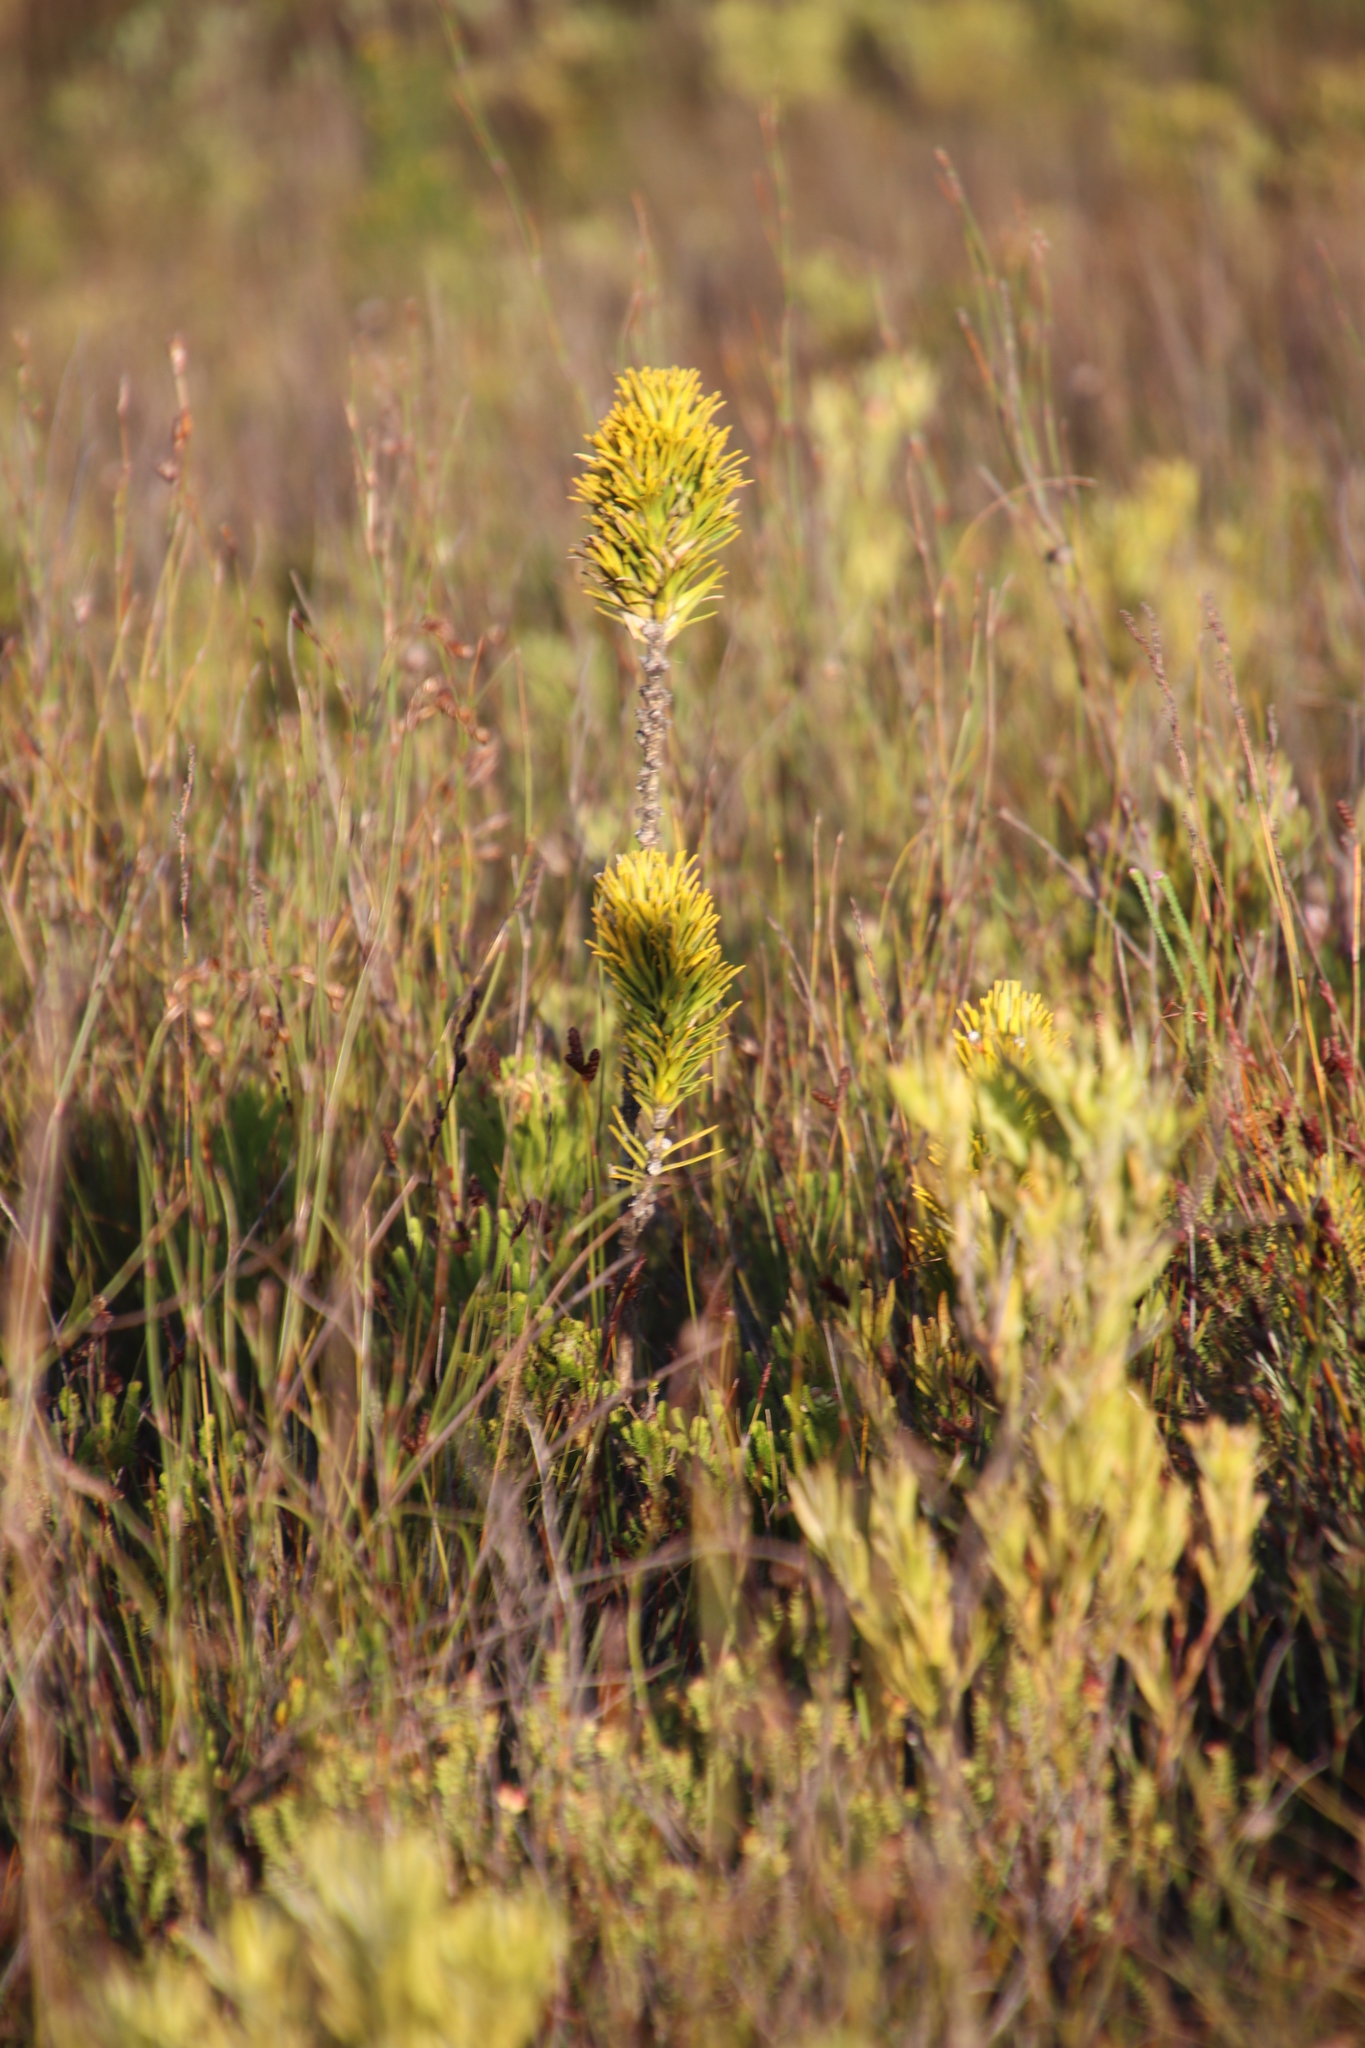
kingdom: Plantae
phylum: Tracheophyta
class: Magnoliopsida
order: Lamiales
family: Stilbaceae
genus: Retzia
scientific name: Retzia capensis
